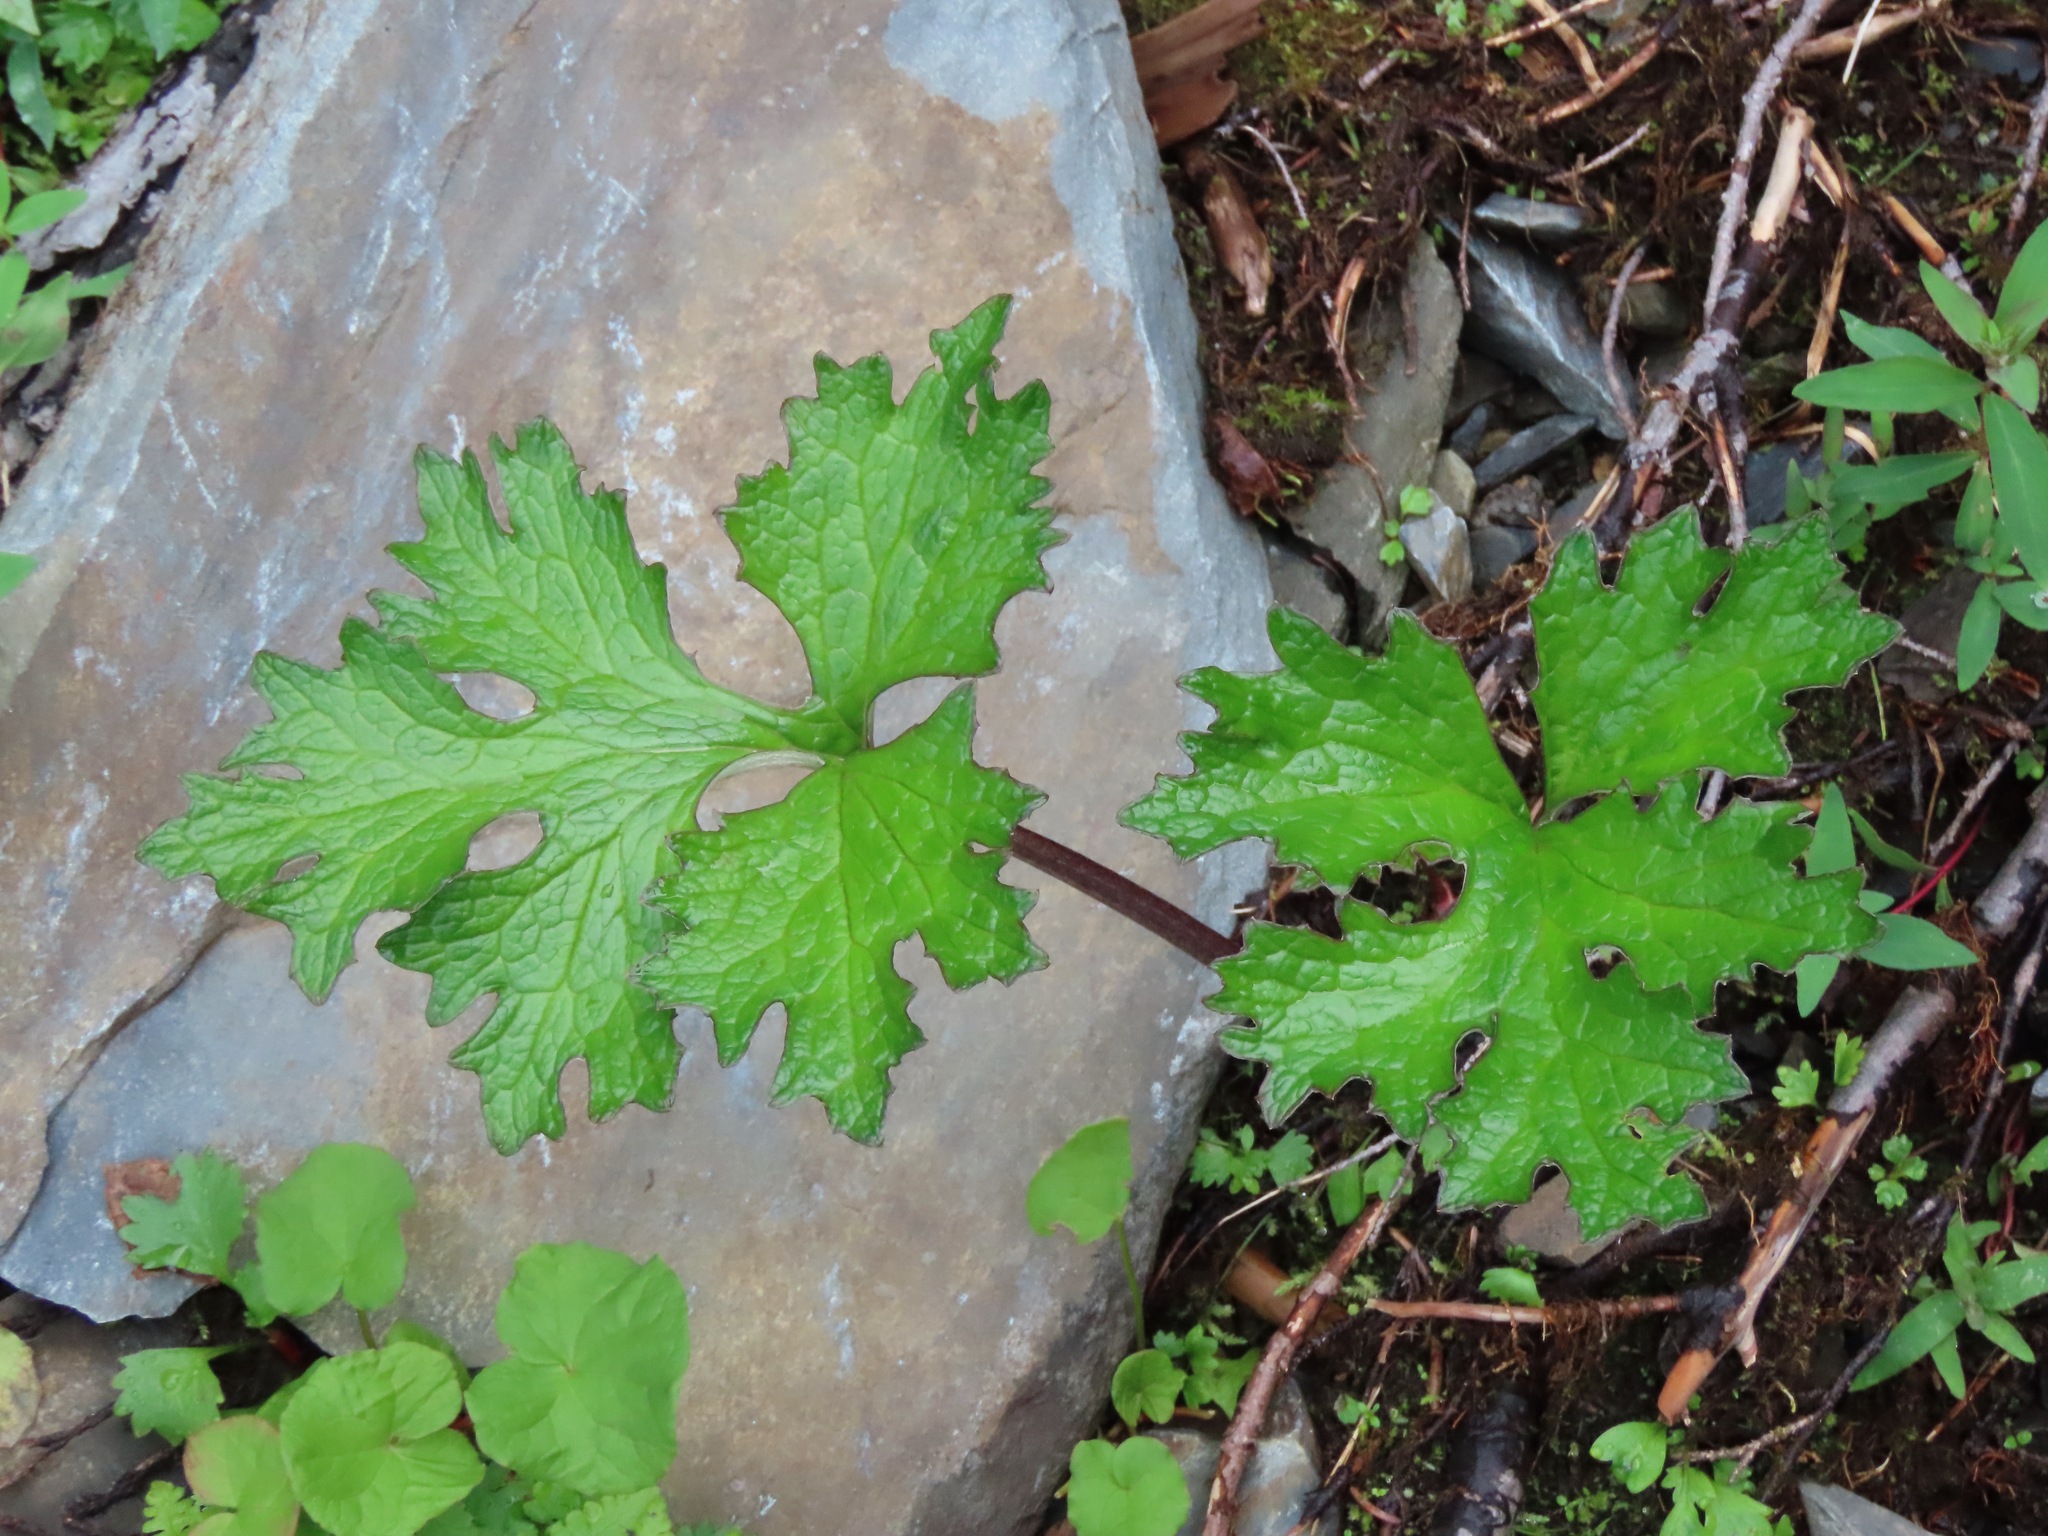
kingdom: Plantae
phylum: Tracheophyta
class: Magnoliopsida
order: Asterales
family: Asteraceae
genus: Petasites
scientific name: Petasites frigidus
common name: Arctic butterbur
